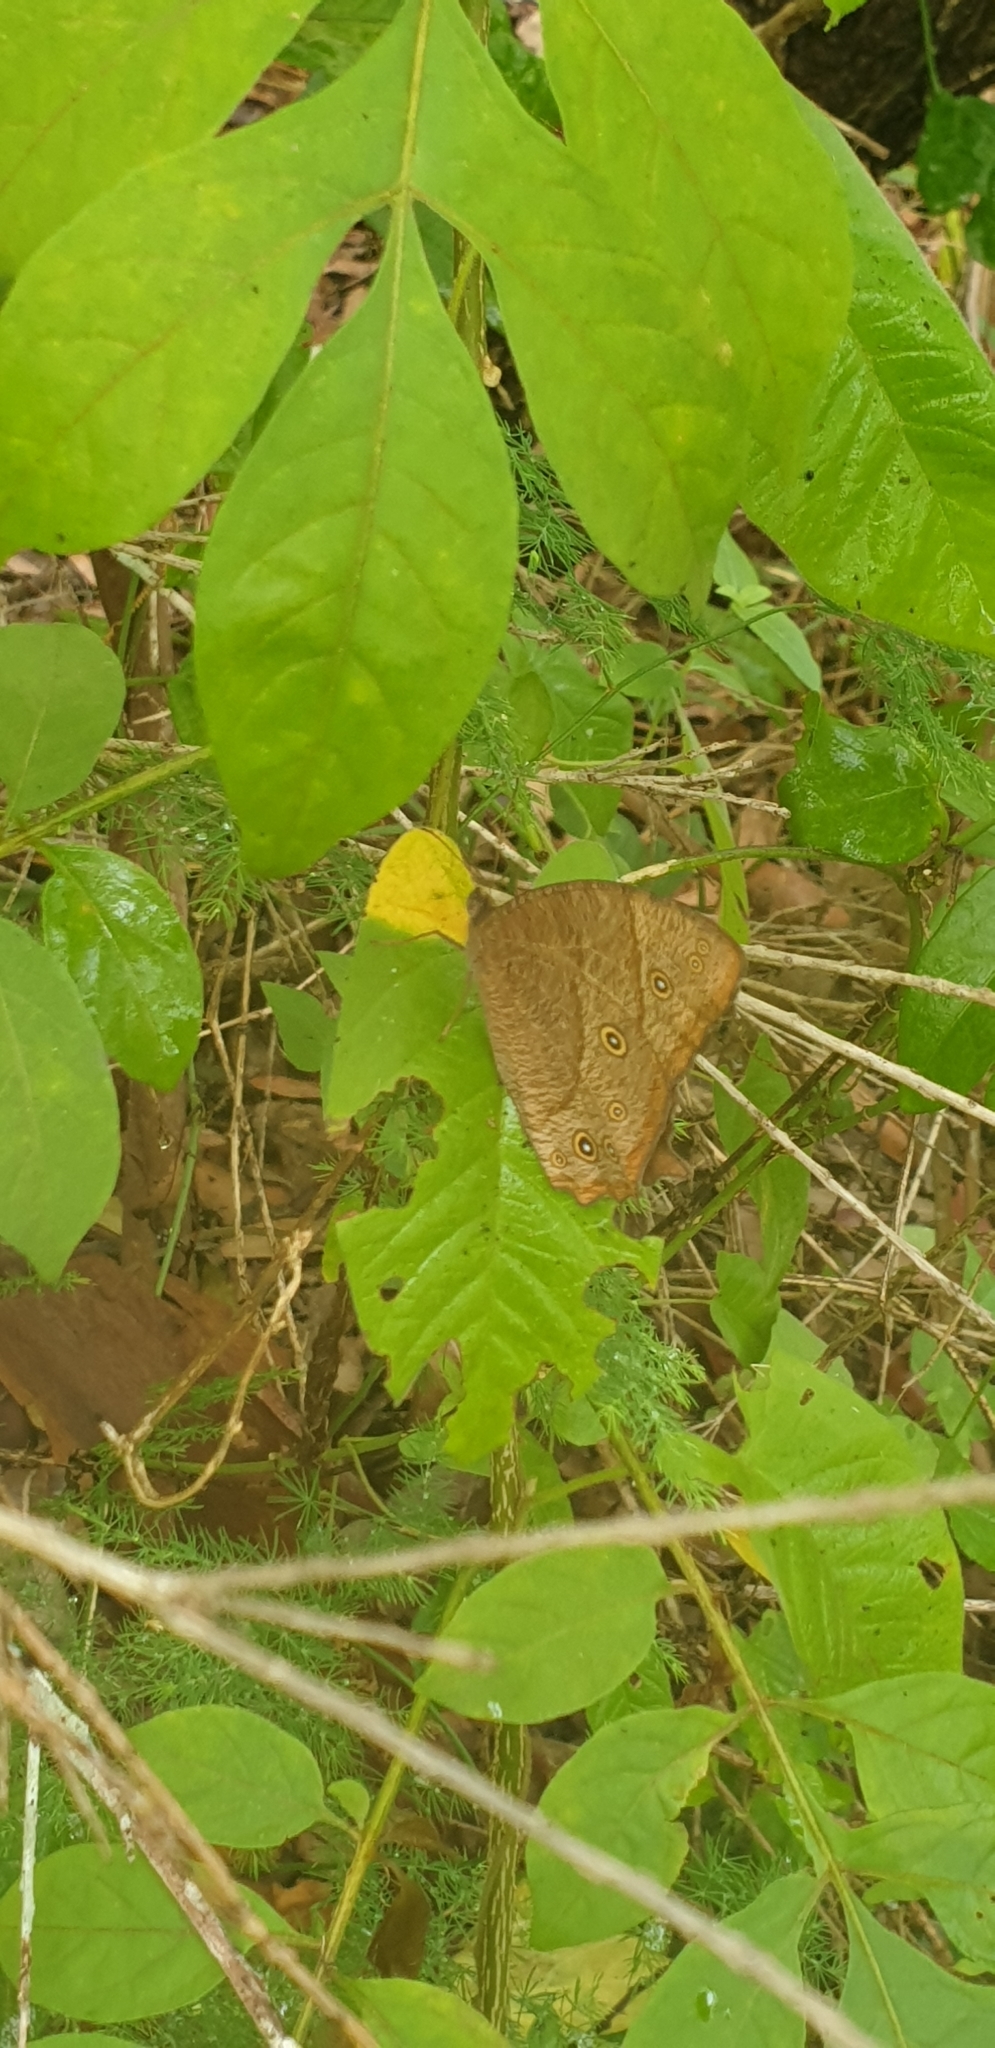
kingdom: Animalia
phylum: Arthropoda
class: Insecta
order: Lepidoptera
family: Nymphalidae
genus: Melanitis
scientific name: Melanitis leda
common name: Twilight brown
